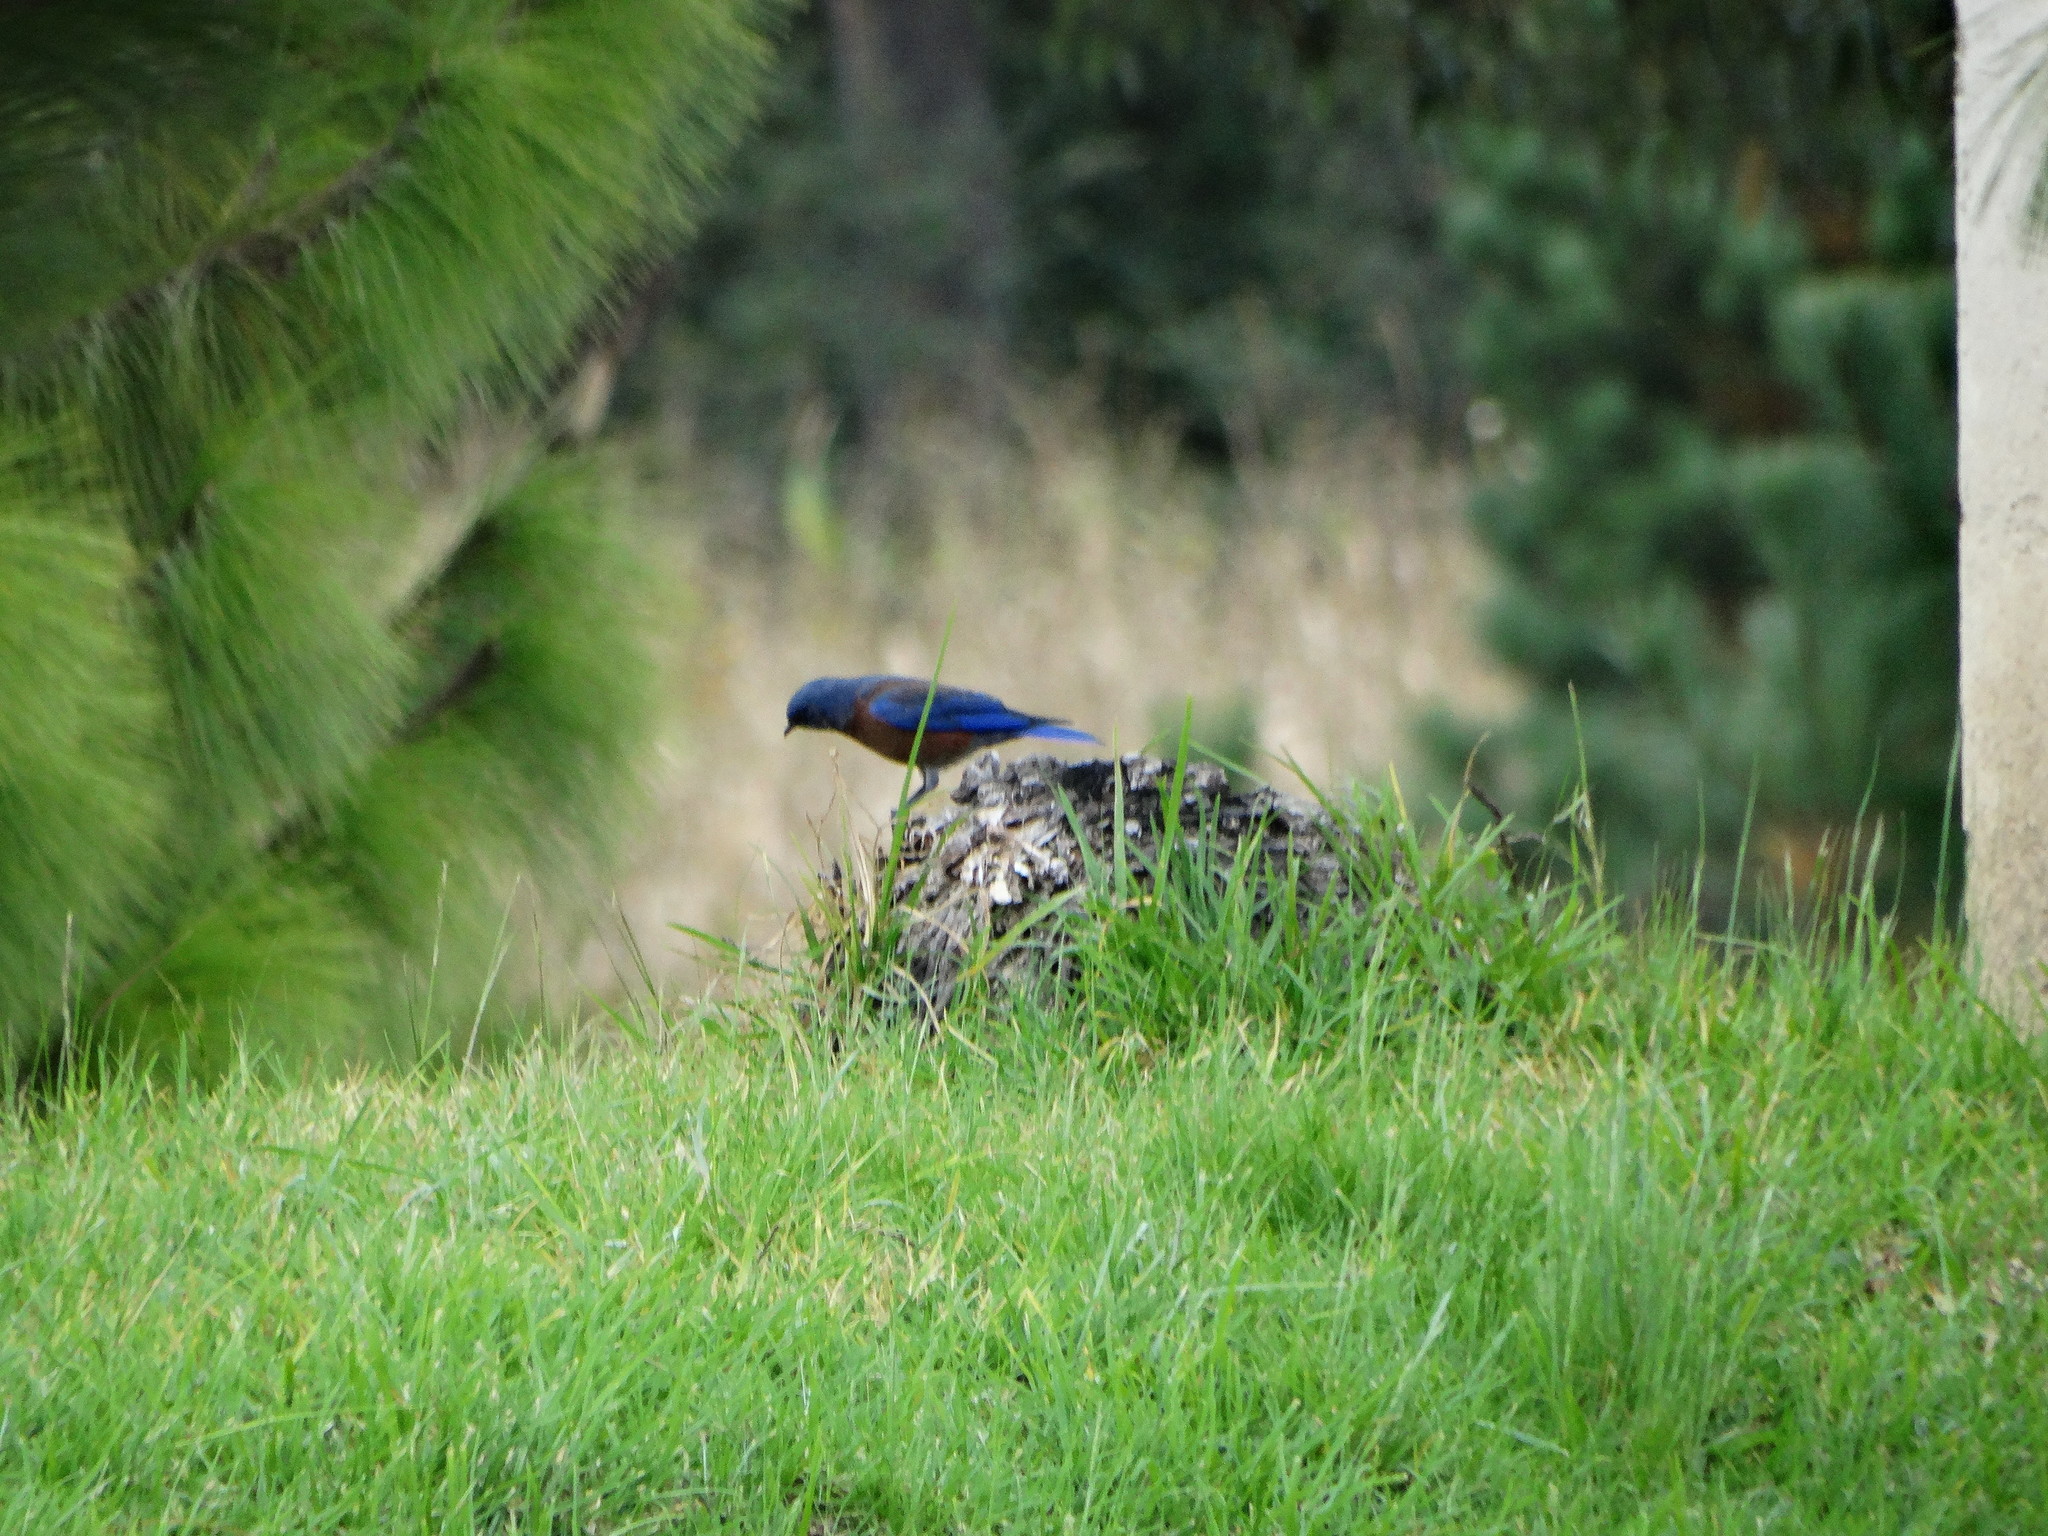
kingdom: Animalia
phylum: Chordata
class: Aves
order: Passeriformes
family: Turdidae
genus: Sialia
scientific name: Sialia mexicana
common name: Western bluebird
